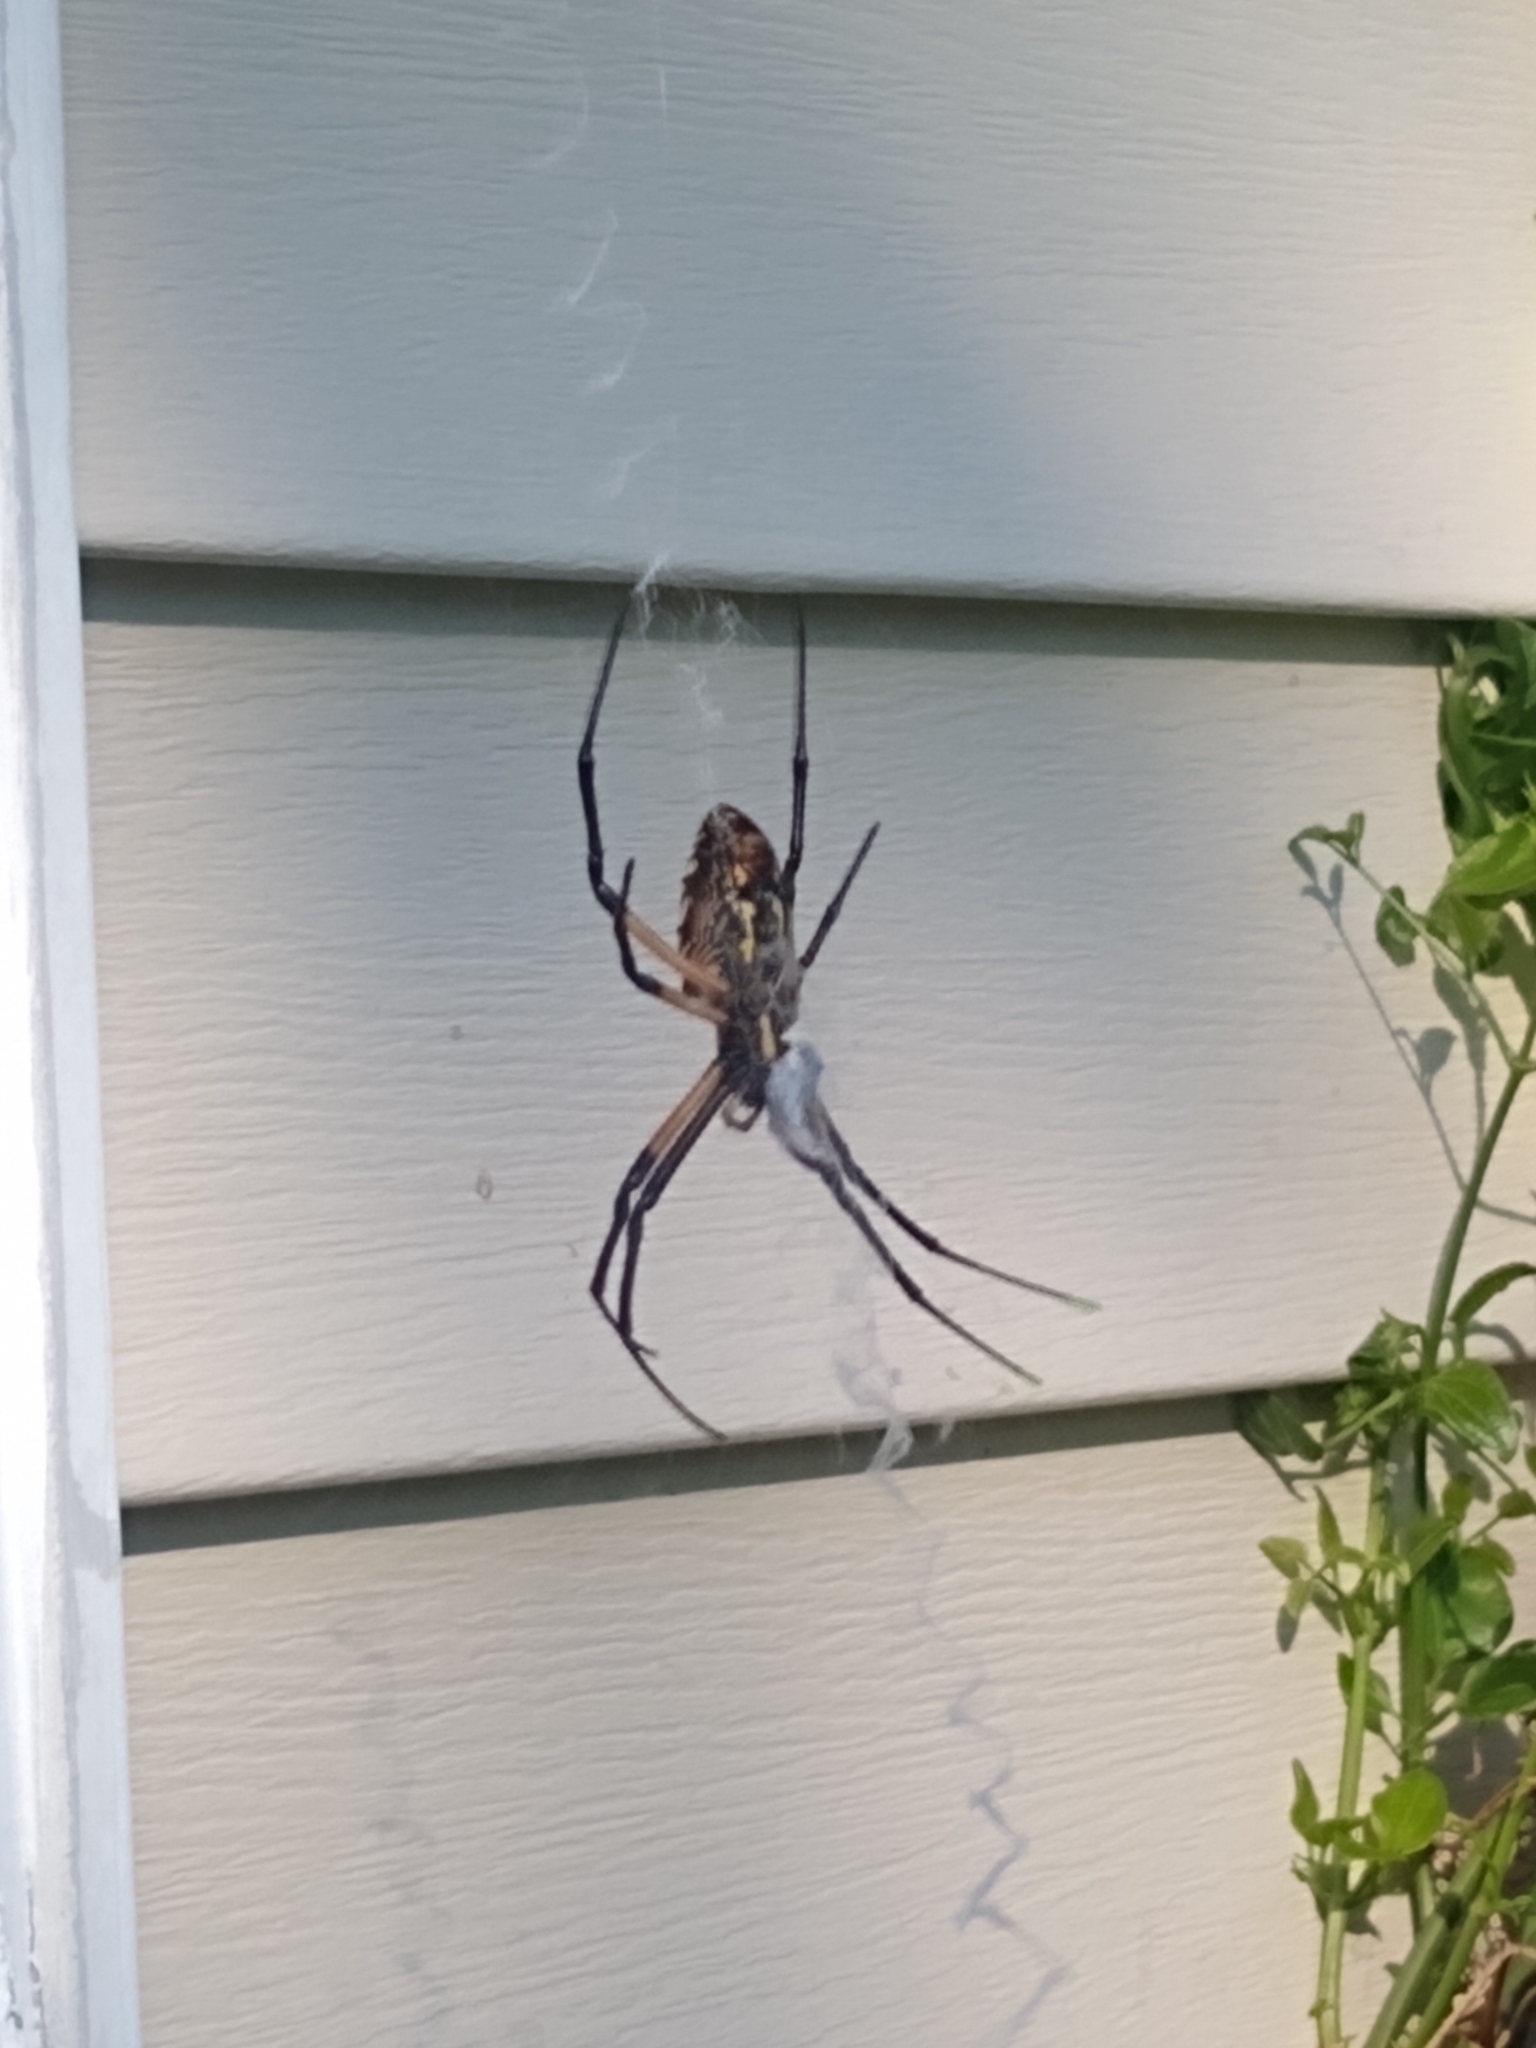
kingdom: Animalia
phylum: Arthropoda
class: Arachnida
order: Araneae
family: Araneidae
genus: Argiope
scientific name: Argiope aurantia
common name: Orb weavers
